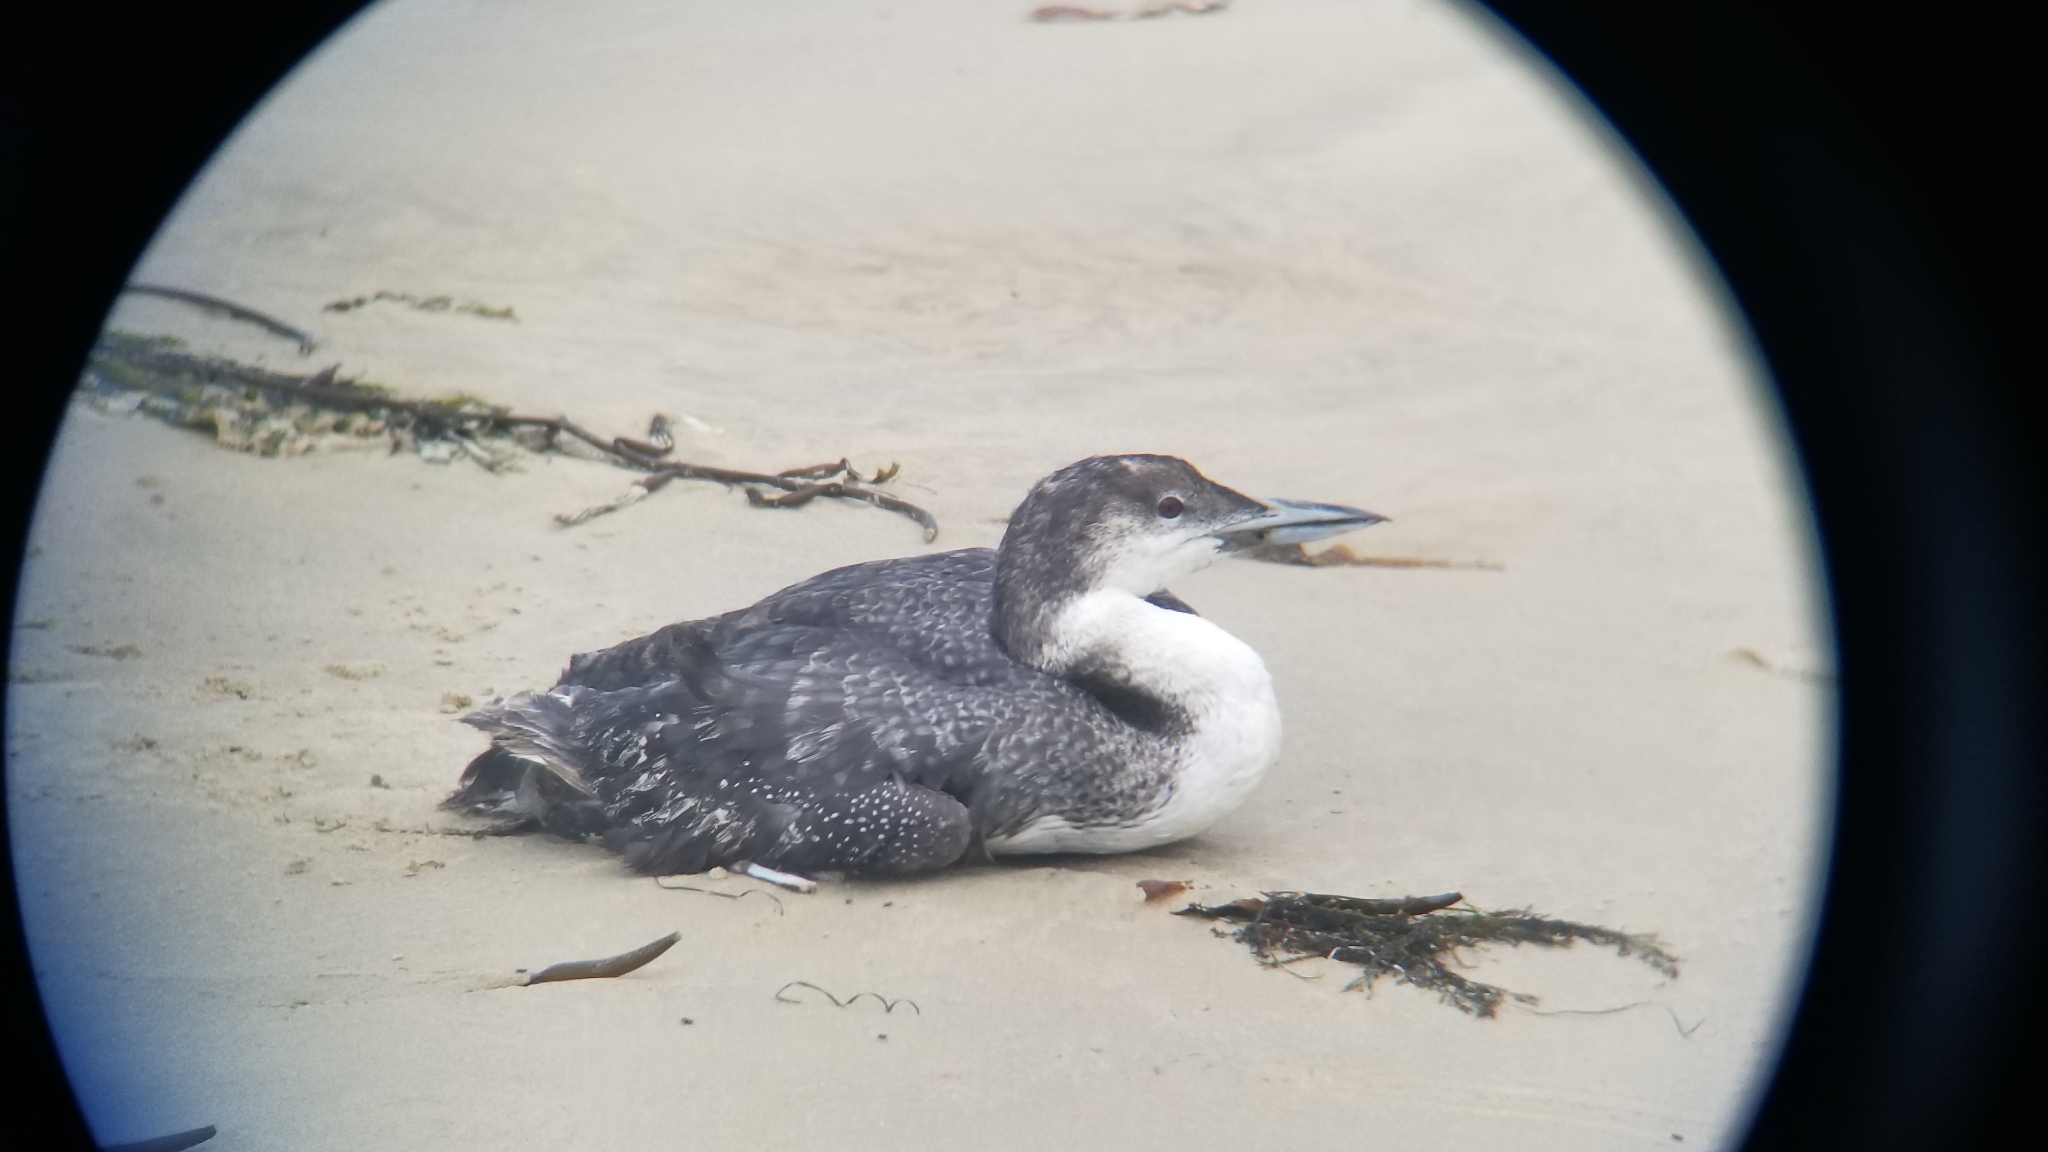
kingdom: Animalia
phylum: Chordata
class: Aves
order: Gaviiformes
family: Gaviidae
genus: Gavia
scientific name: Gavia immer
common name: Common loon
